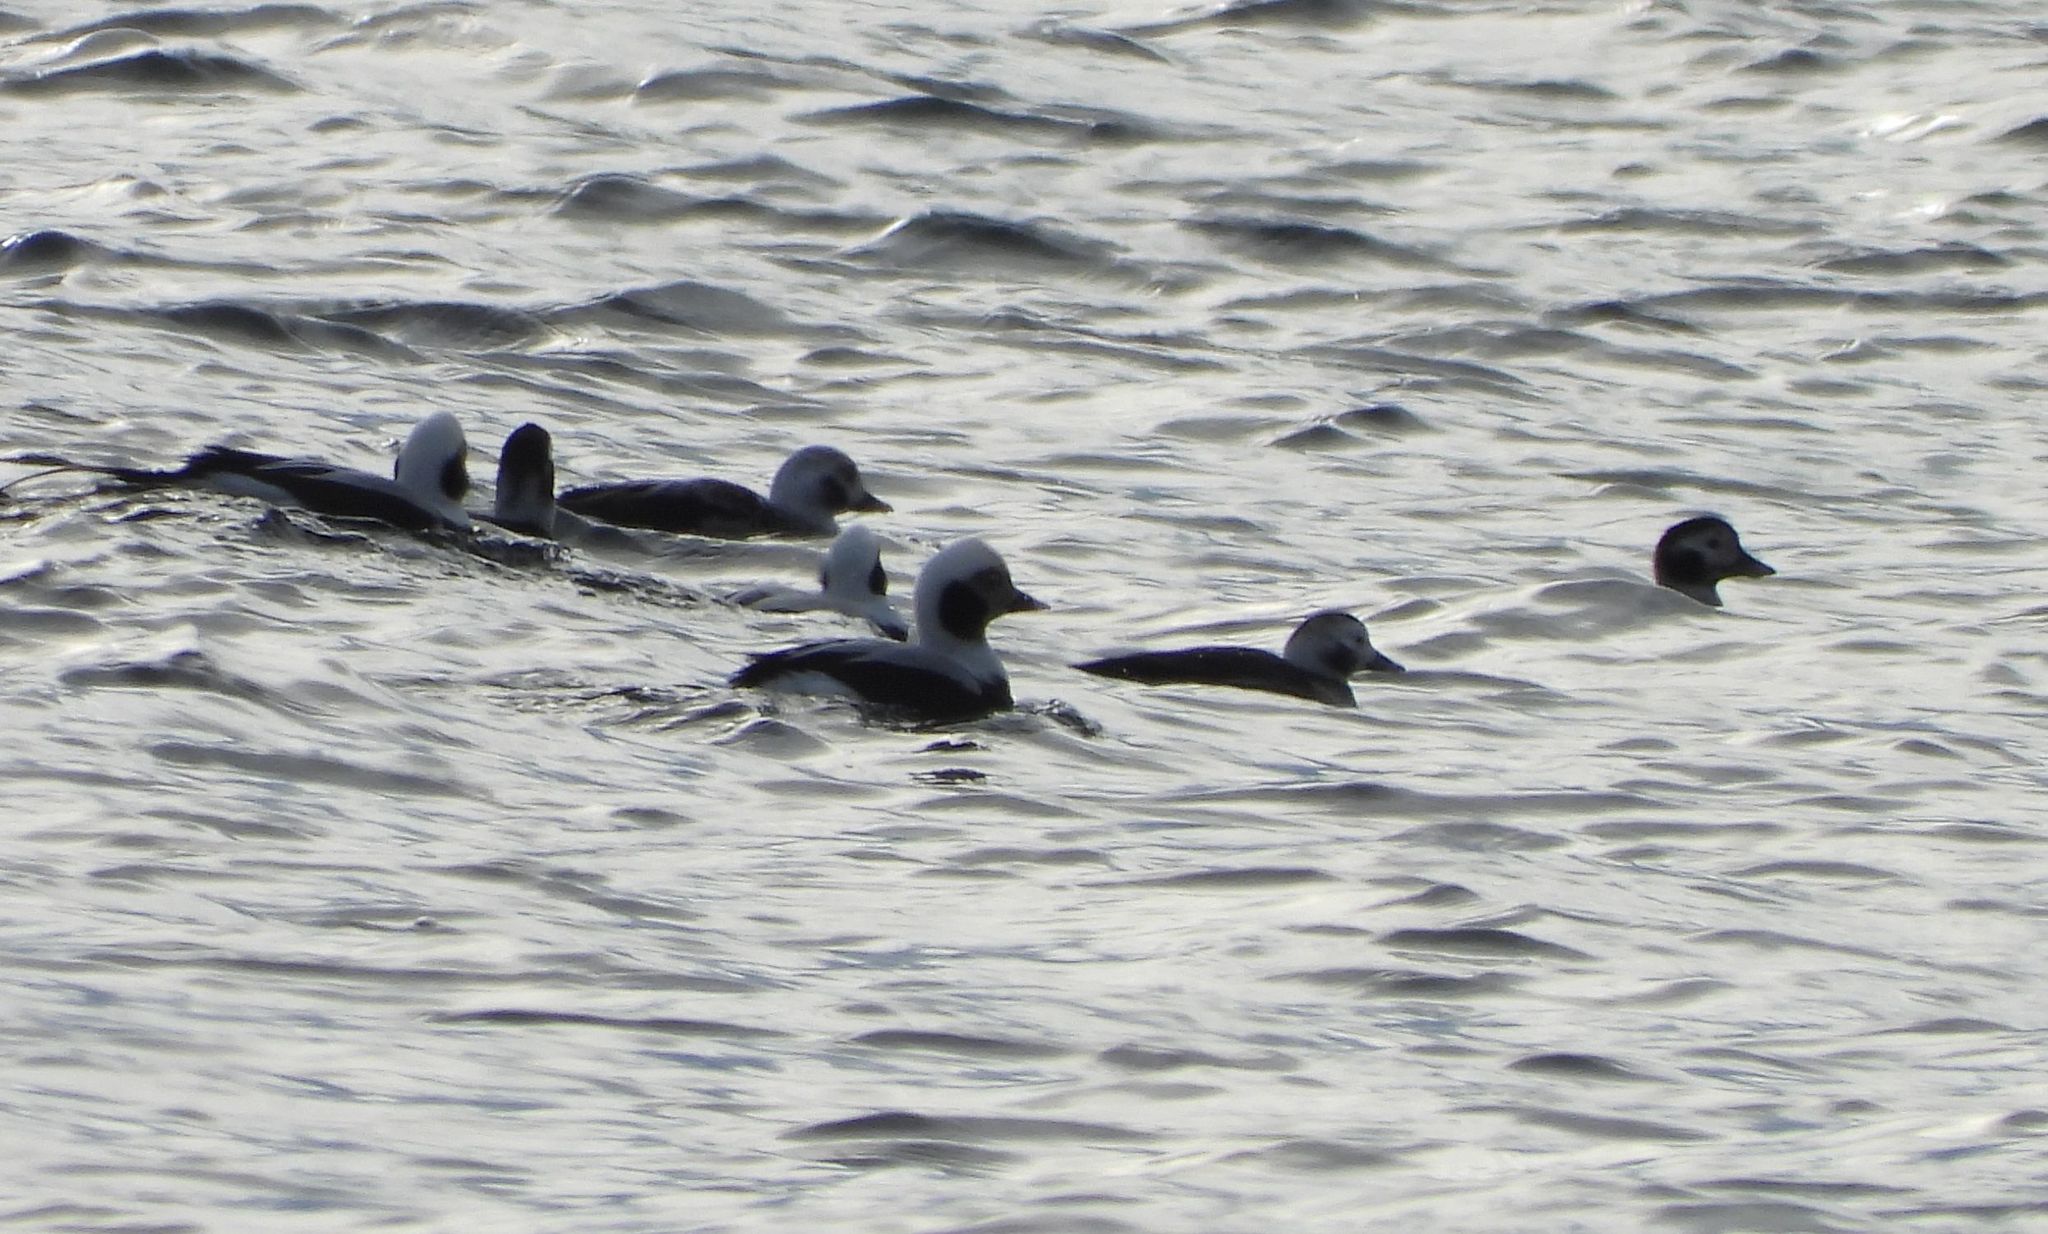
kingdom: Animalia
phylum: Chordata
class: Aves
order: Anseriformes
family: Anatidae
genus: Clangula
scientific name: Clangula hyemalis
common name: Long-tailed duck
